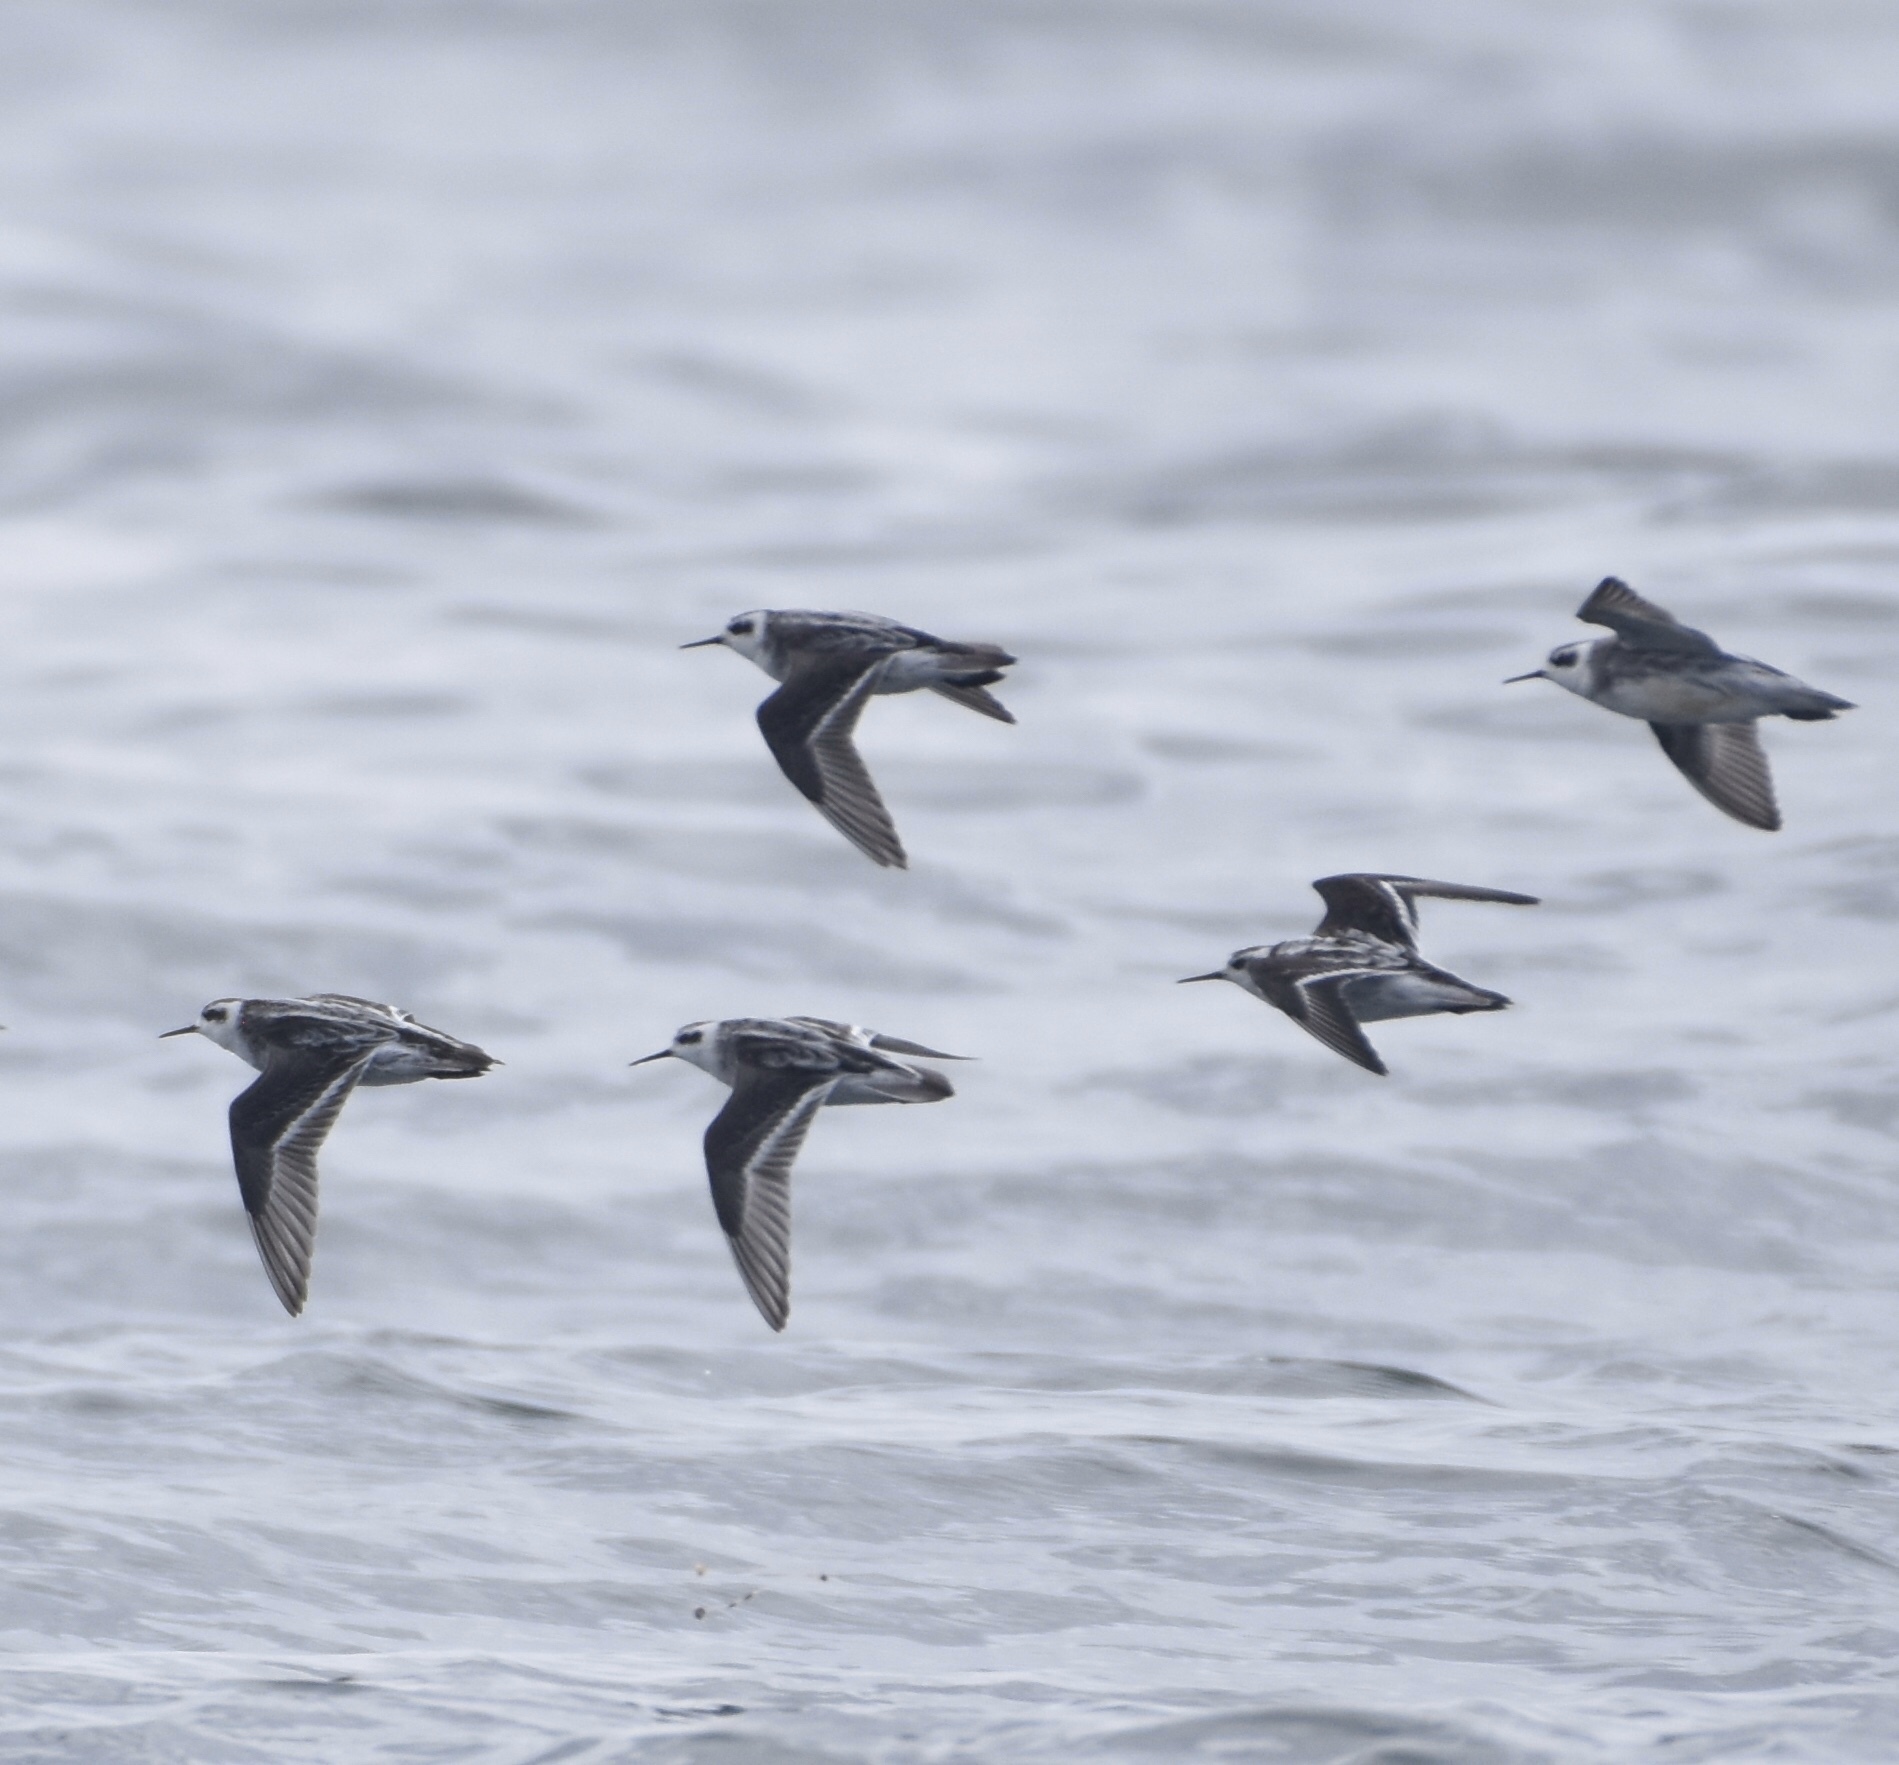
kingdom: Animalia
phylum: Chordata
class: Aves
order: Charadriiformes
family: Scolopacidae
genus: Phalaropus
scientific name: Phalaropus lobatus
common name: Red-necked phalarope
